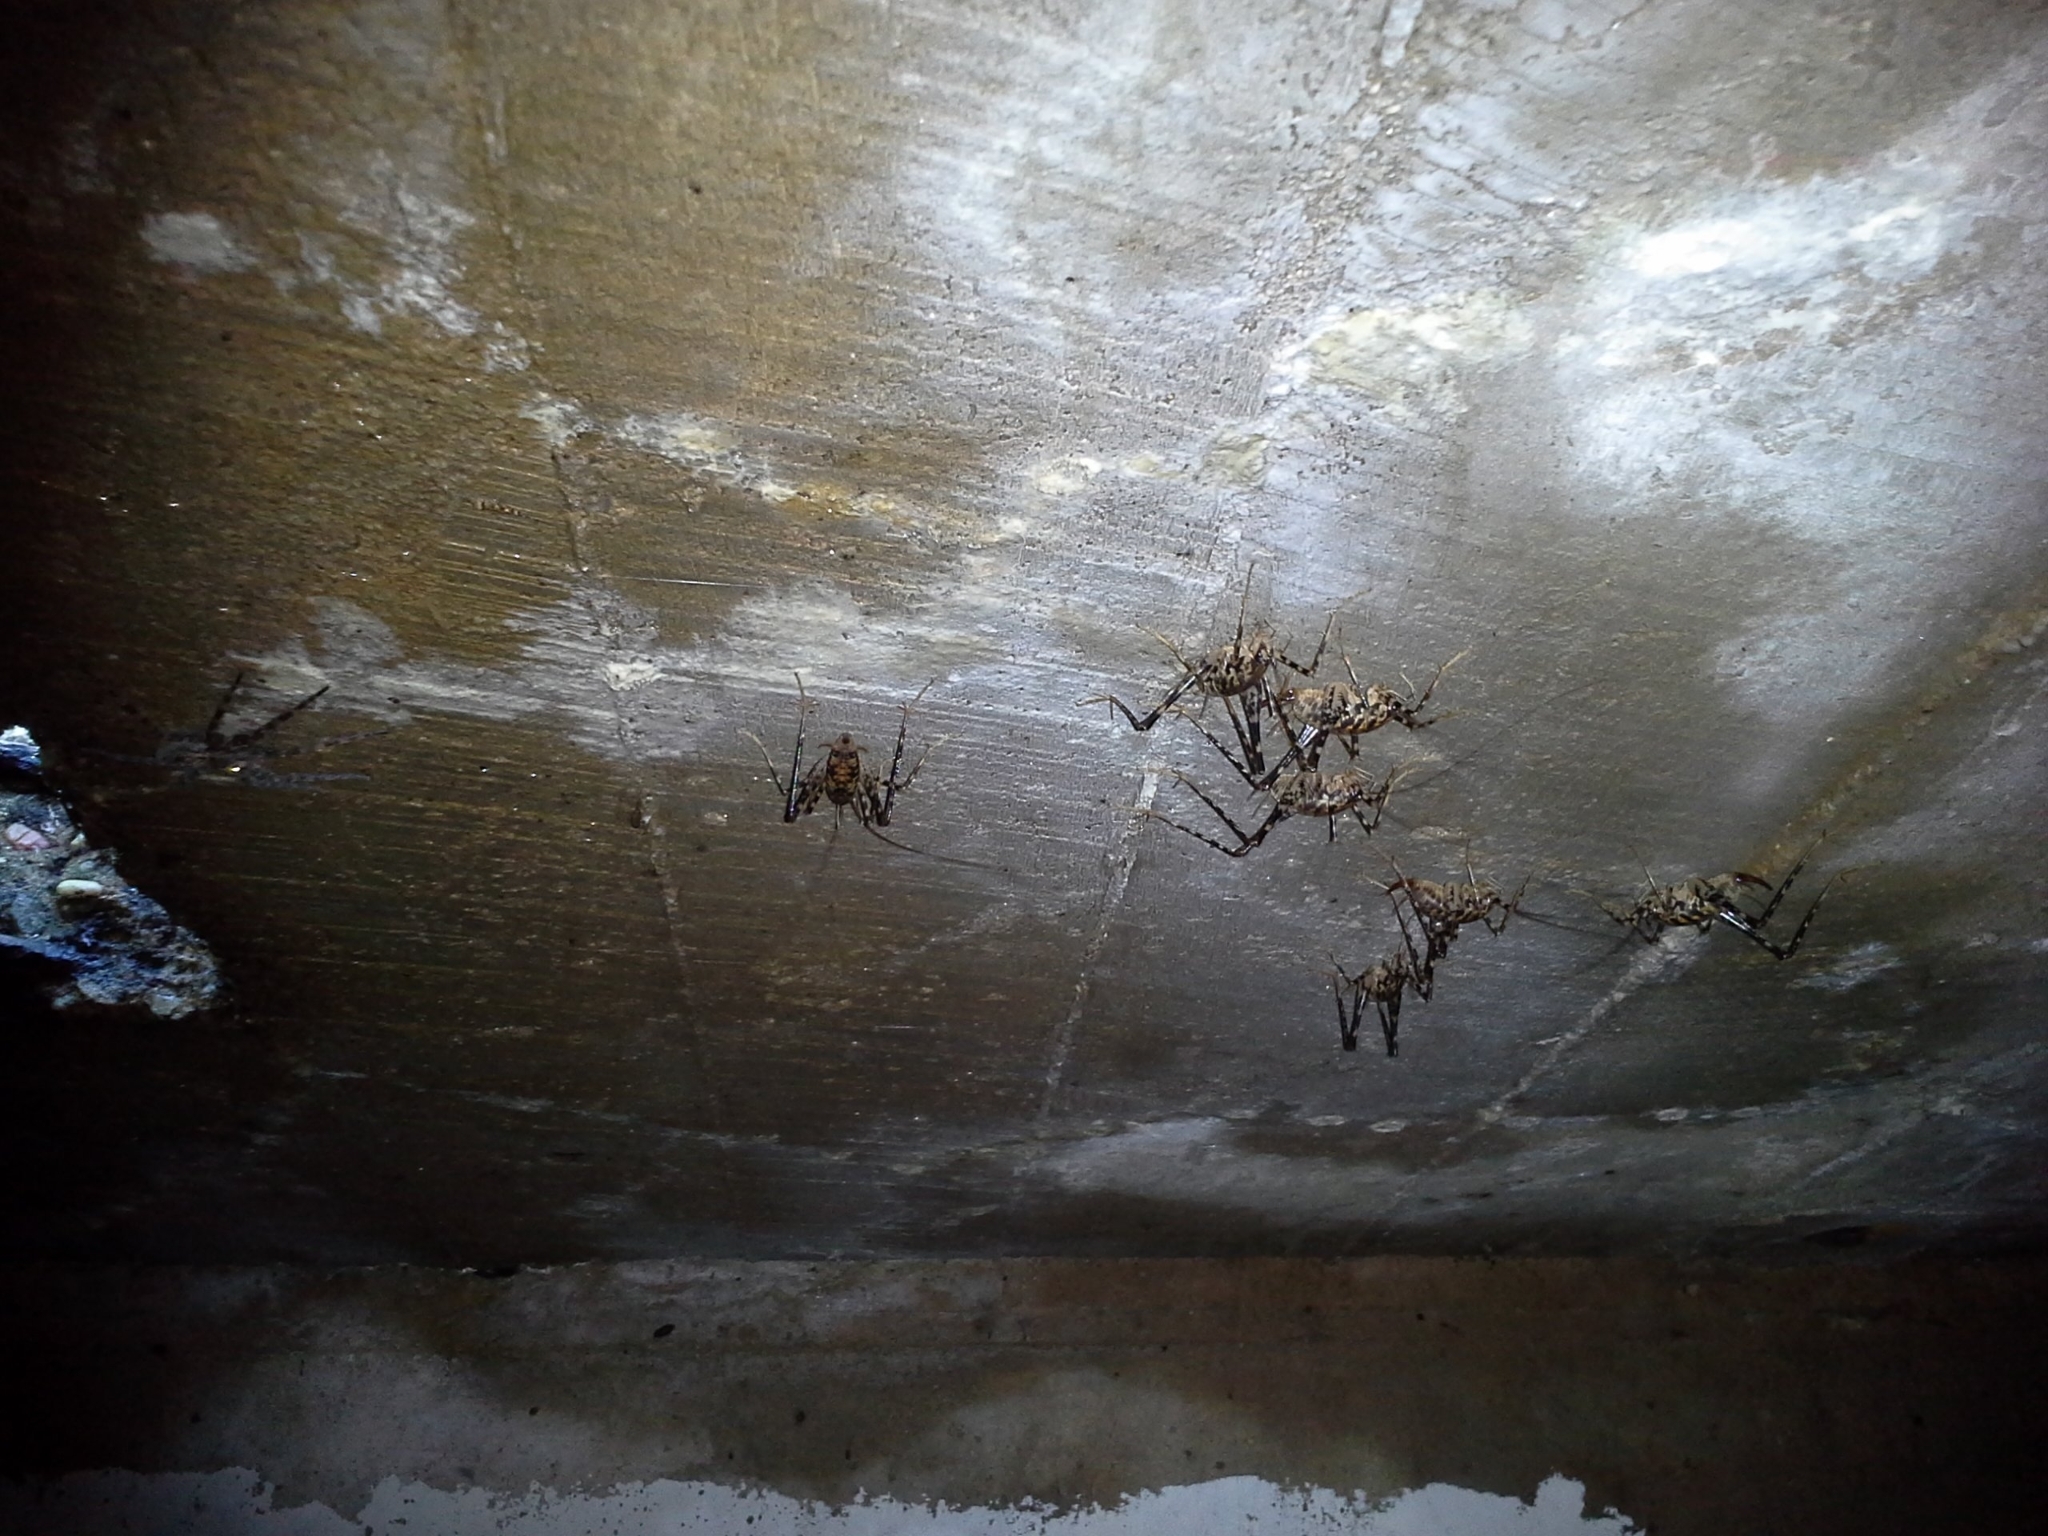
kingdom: Animalia
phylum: Arthropoda
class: Insecta
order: Orthoptera
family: Rhaphidophoridae
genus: Diestrammena
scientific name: Diestrammena japanica
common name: Japanese camel cricket
